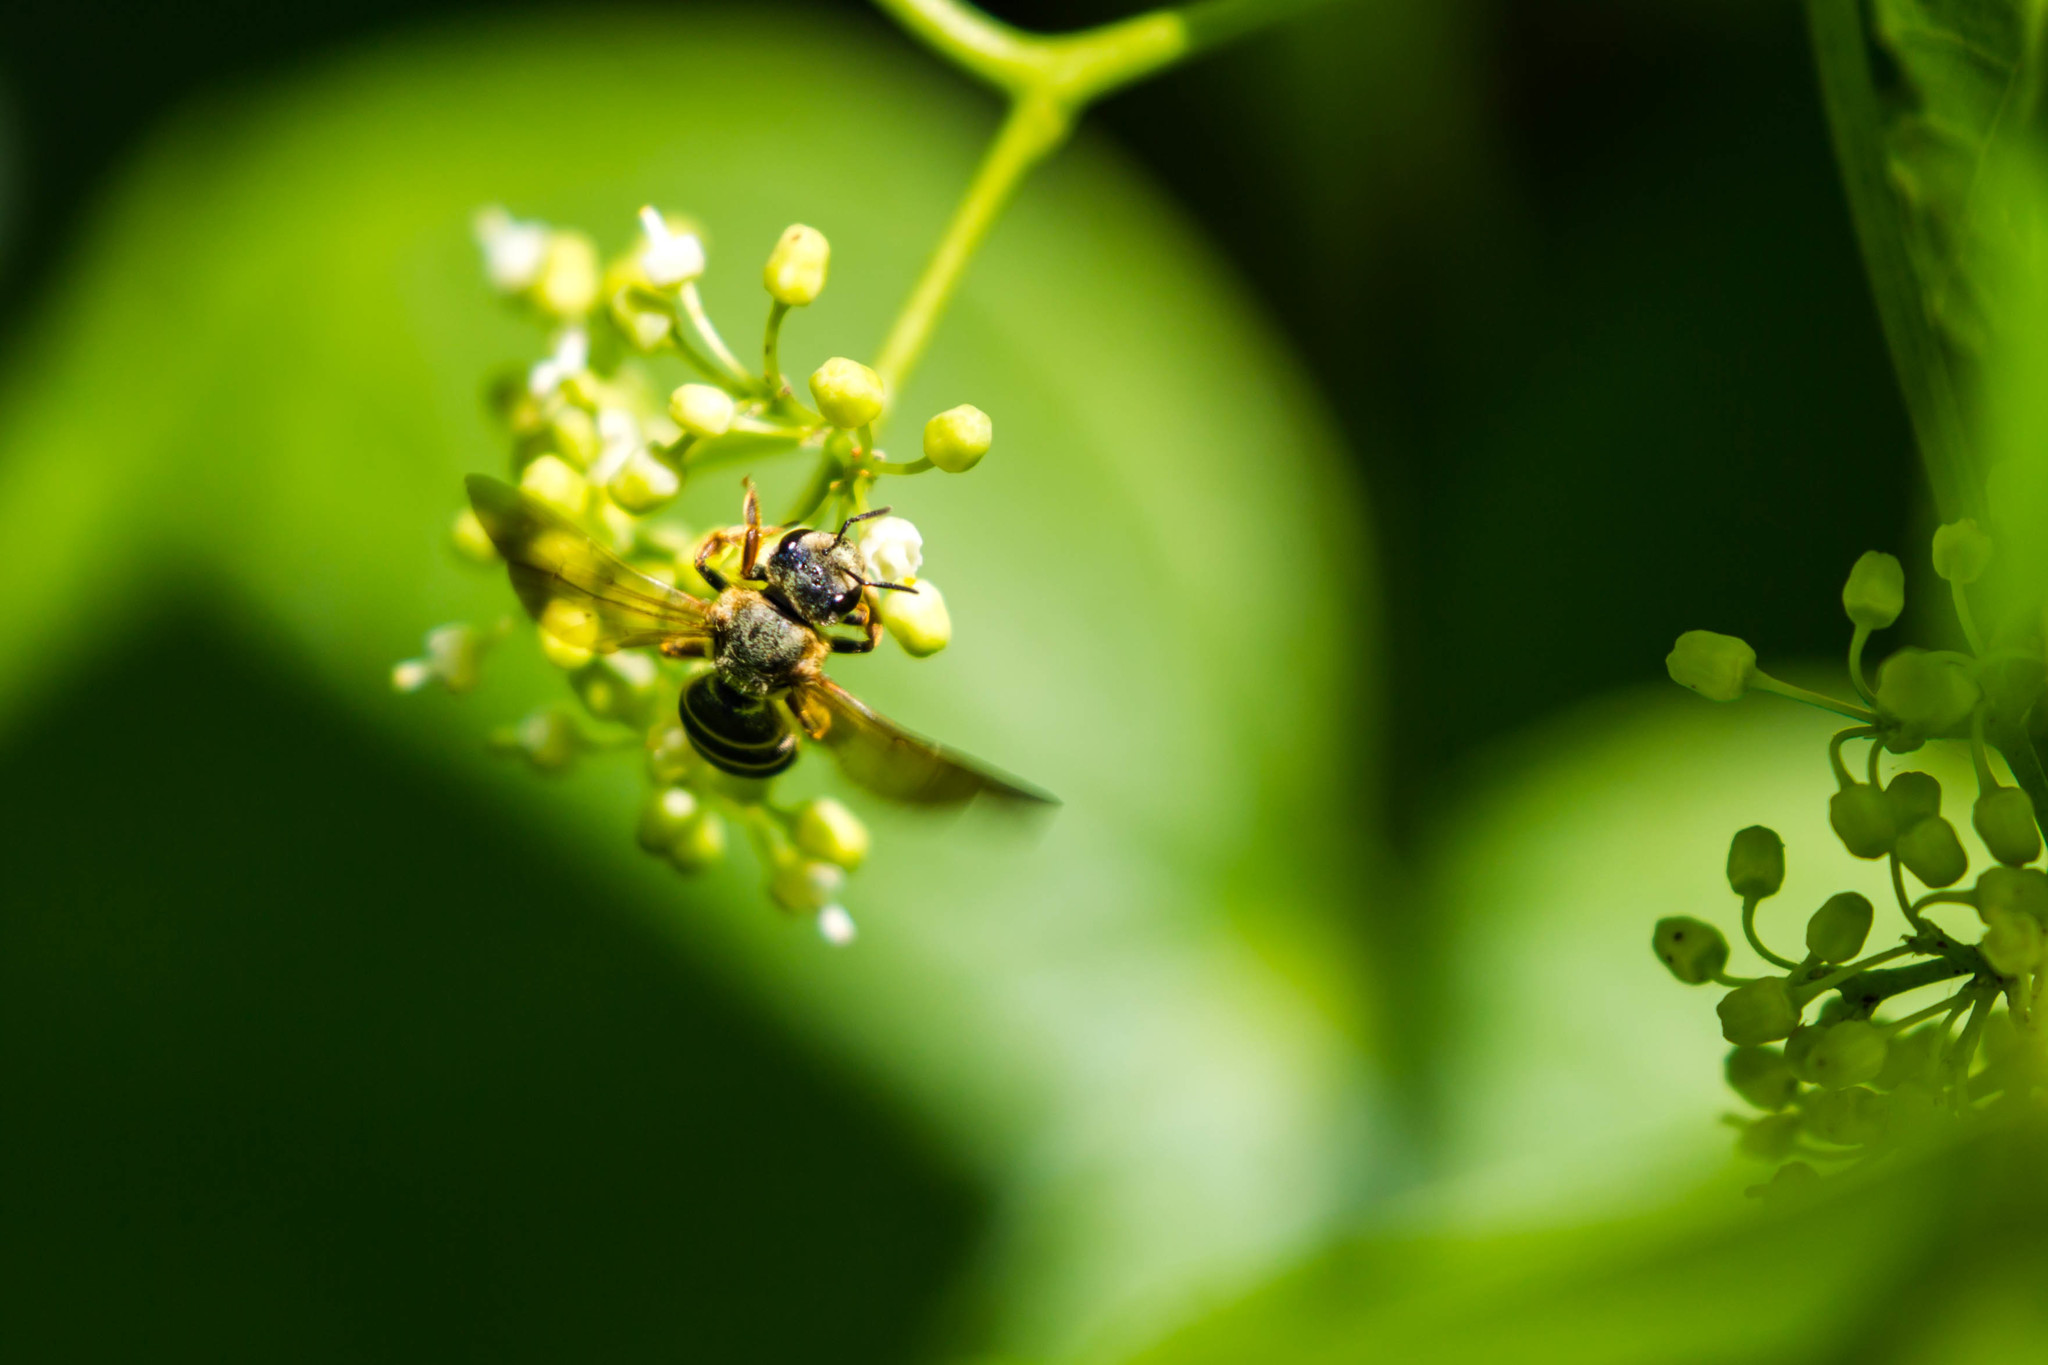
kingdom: Animalia
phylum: Arthropoda
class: Insecta
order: Hymenoptera
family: Halictidae
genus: Halictus
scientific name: Halictus parallelus
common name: Parallel-striped sweat bee
